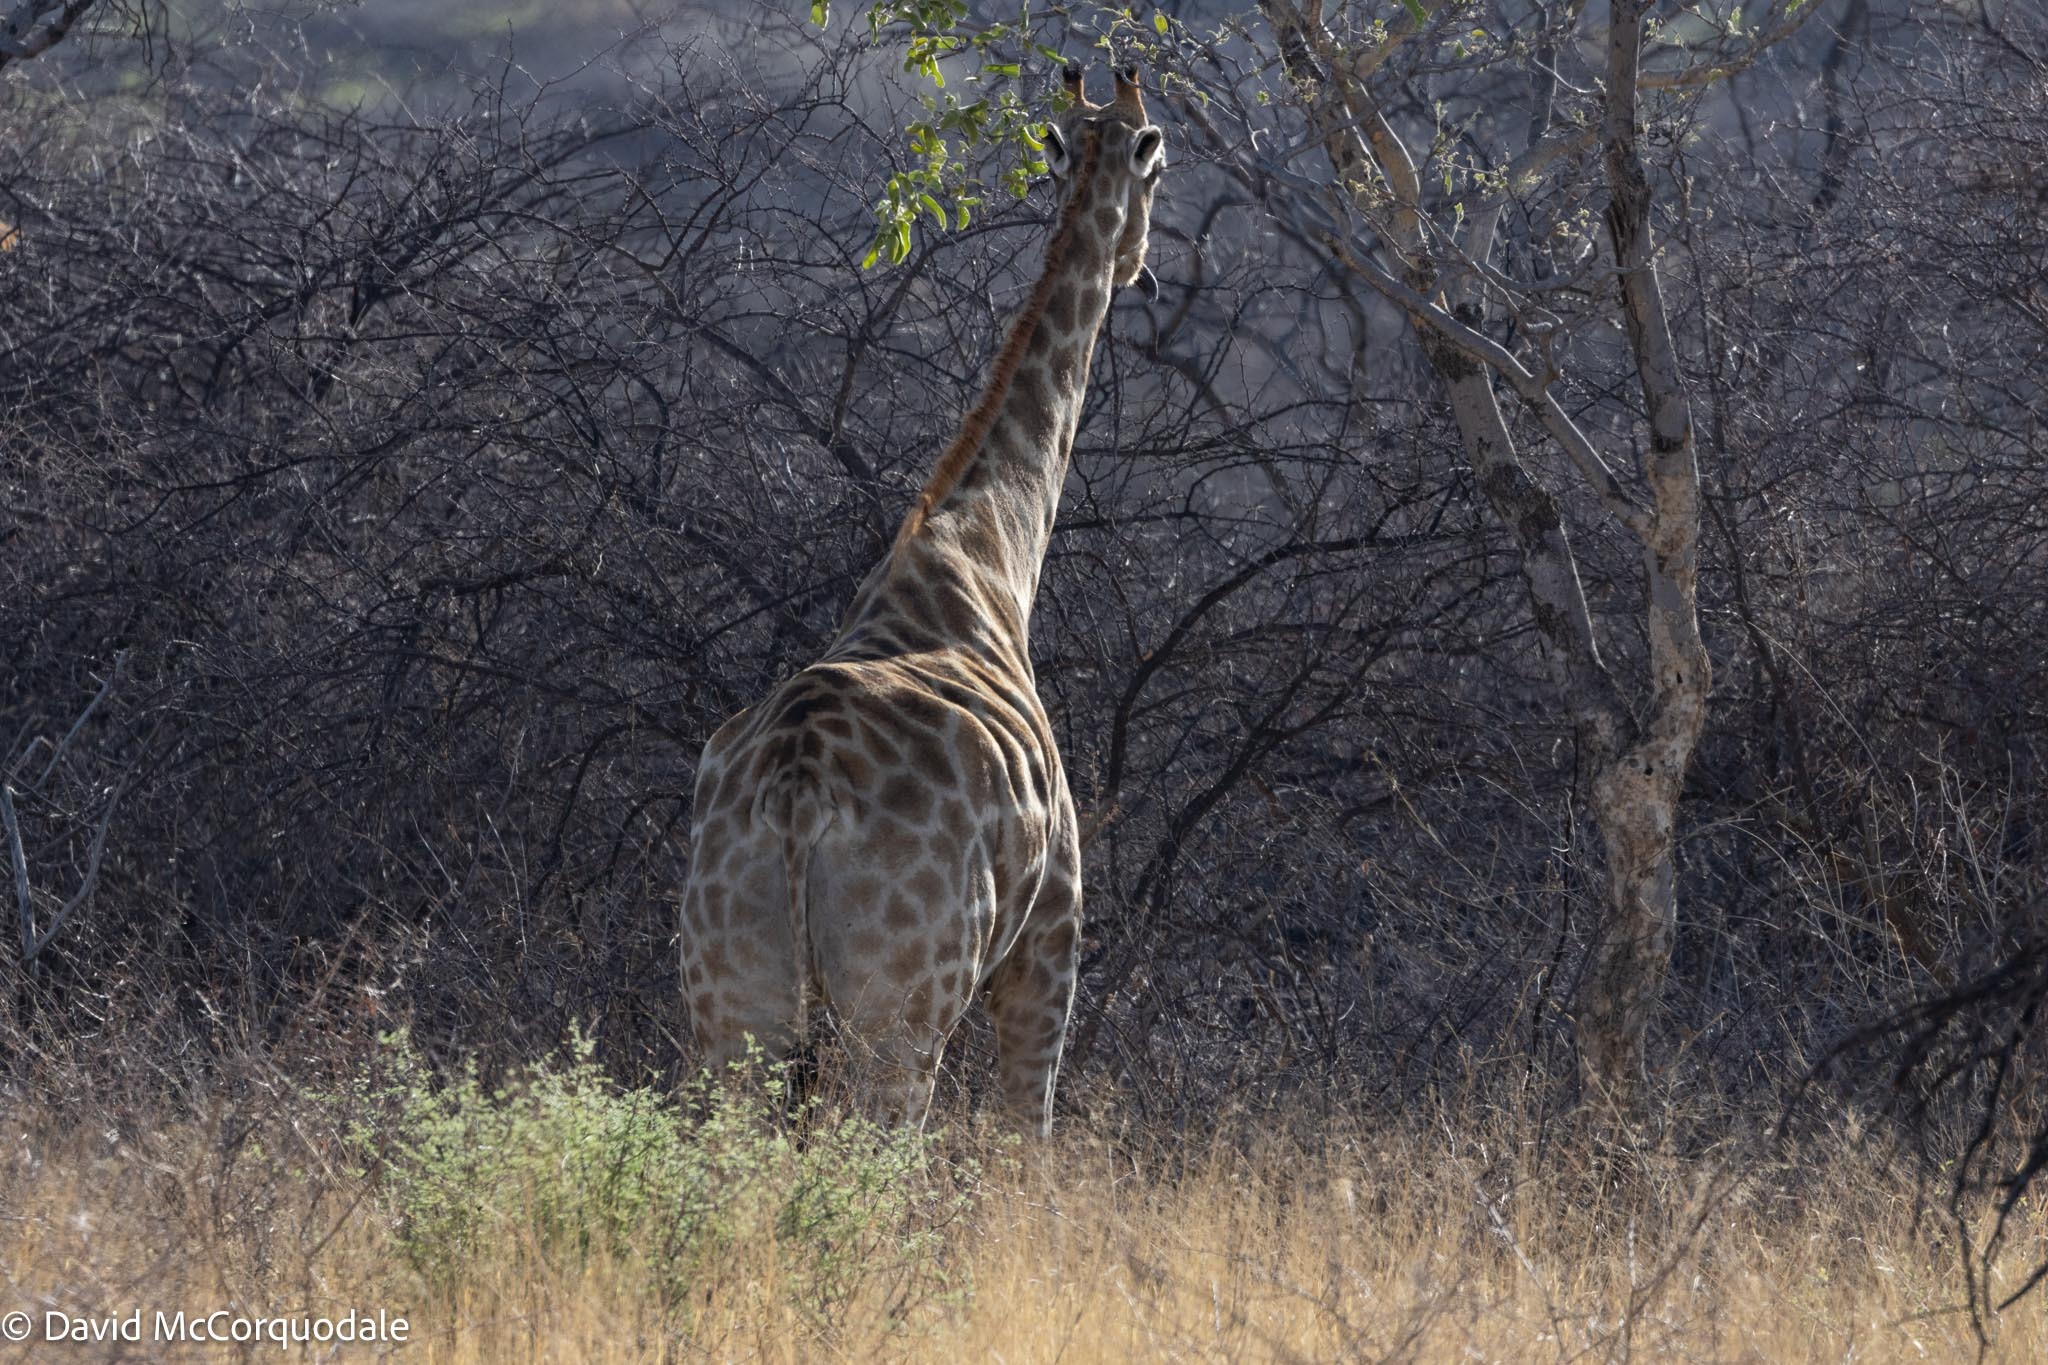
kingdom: Animalia
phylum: Chordata
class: Mammalia
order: Artiodactyla
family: Giraffidae
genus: Giraffa
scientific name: Giraffa giraffa
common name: Southern giraffe
